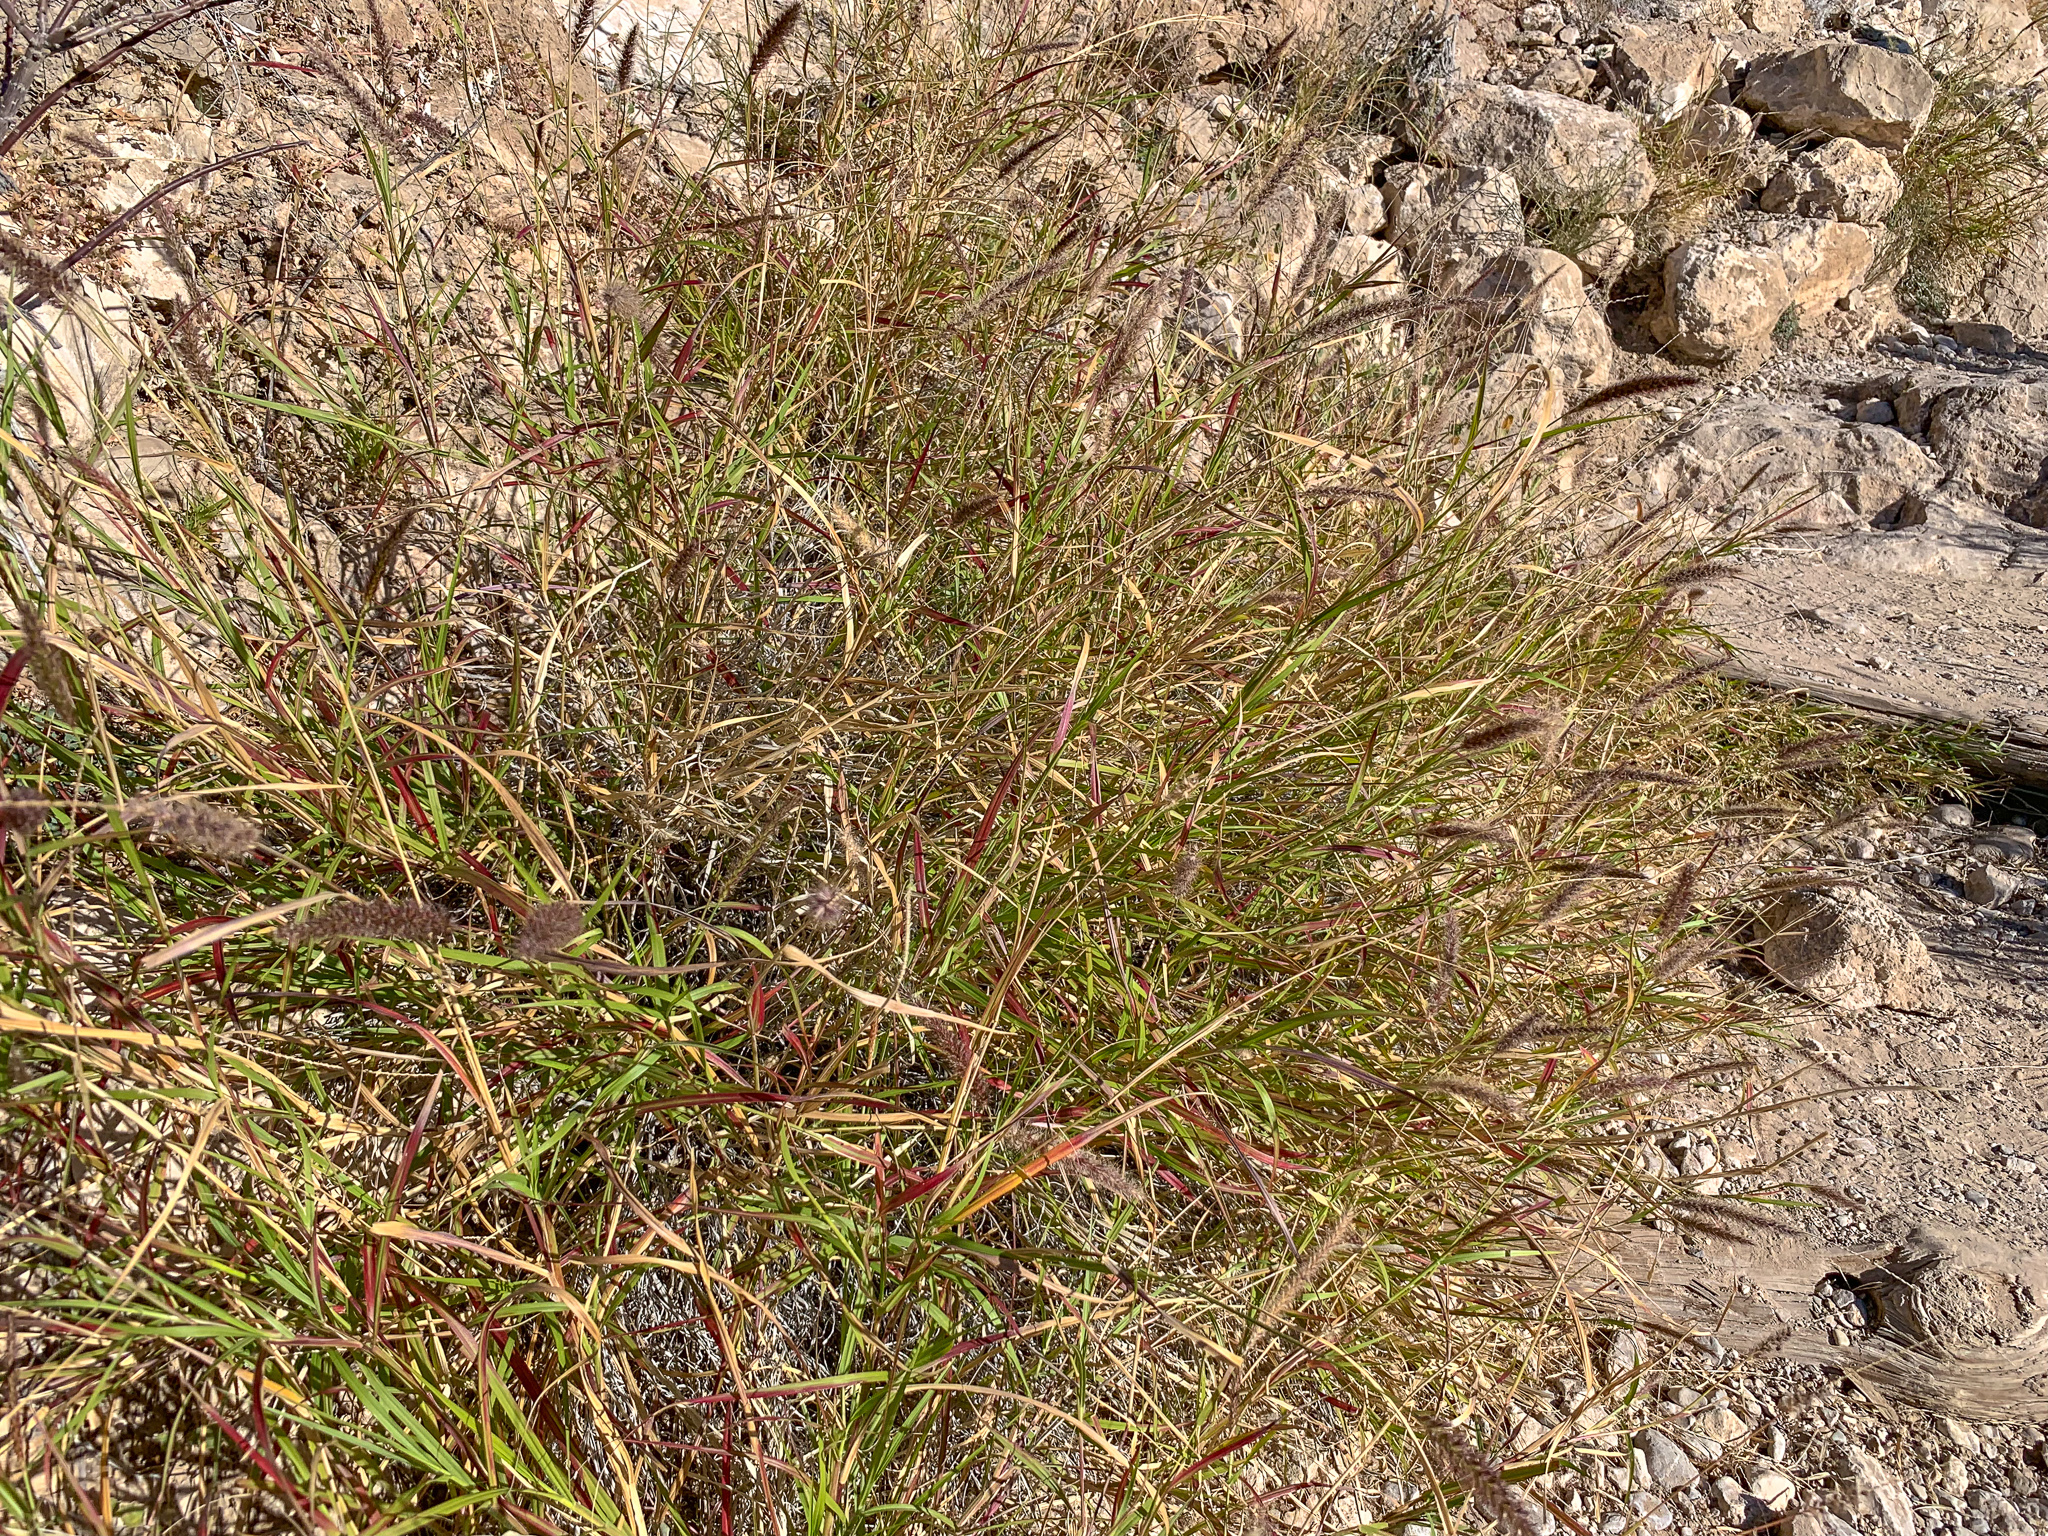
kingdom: Plantae
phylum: Tracheophyta
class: Liliopsida
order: Poales
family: Poaceae
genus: Cenchrus
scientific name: Cenchrus ciliaris
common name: Buffelgrass
